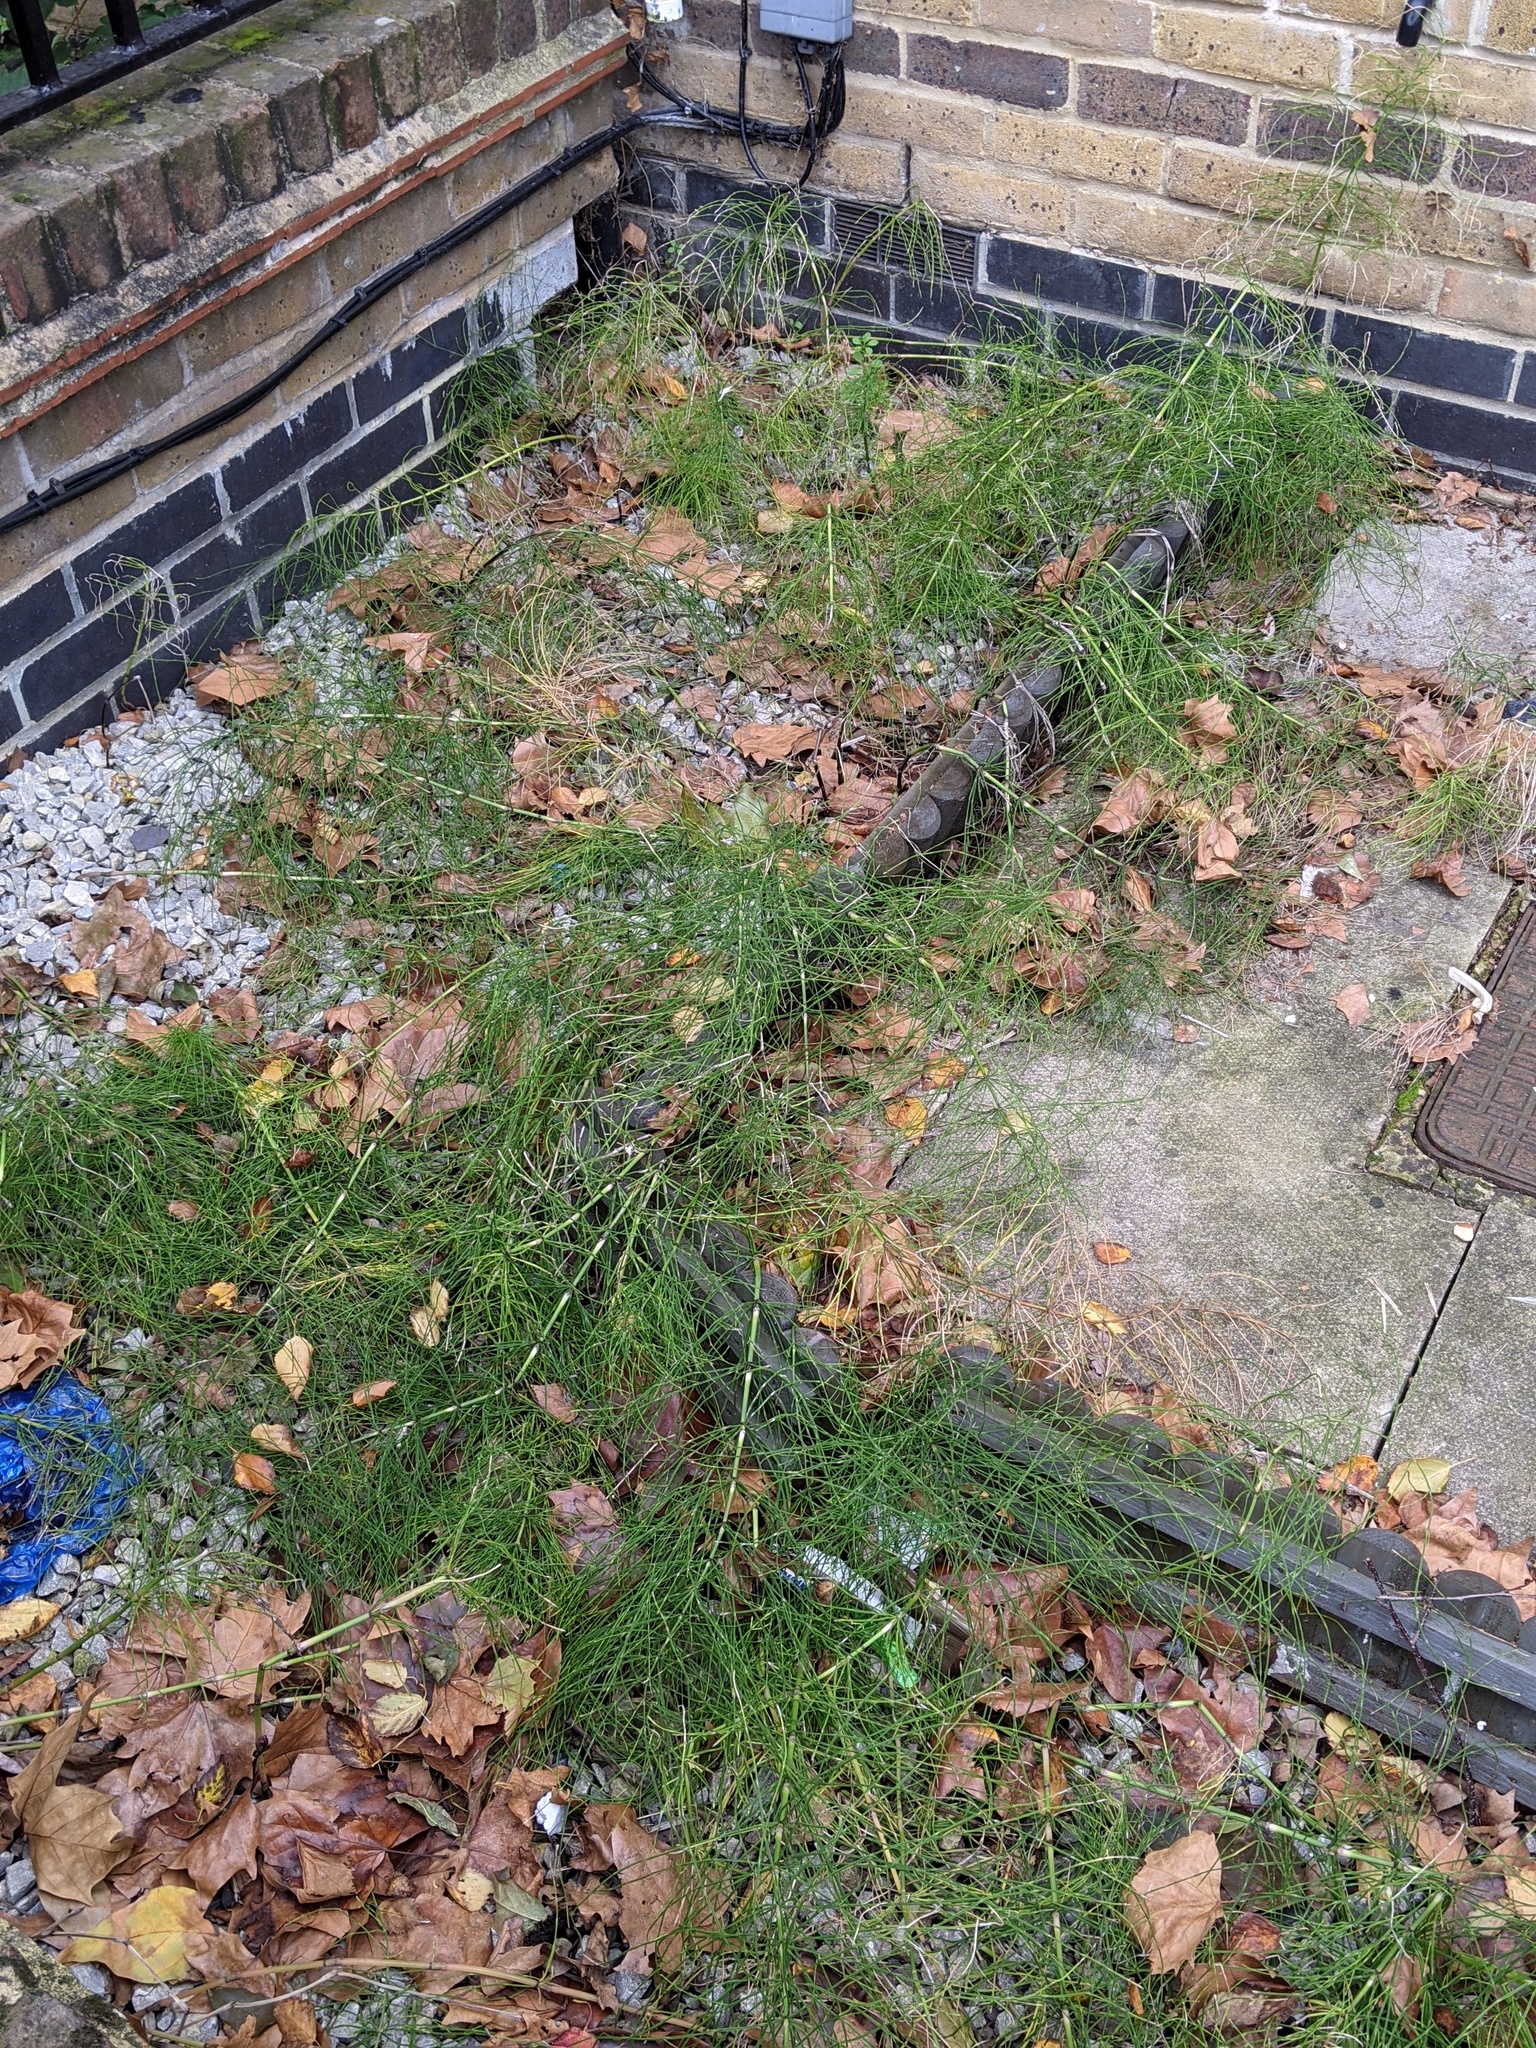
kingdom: Plantae
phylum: Tracheophyta
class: Polypodiopsida
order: Equisetales
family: Equisetaceae
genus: Equisetum
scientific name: Equisetum arvense
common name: Field horsetail
